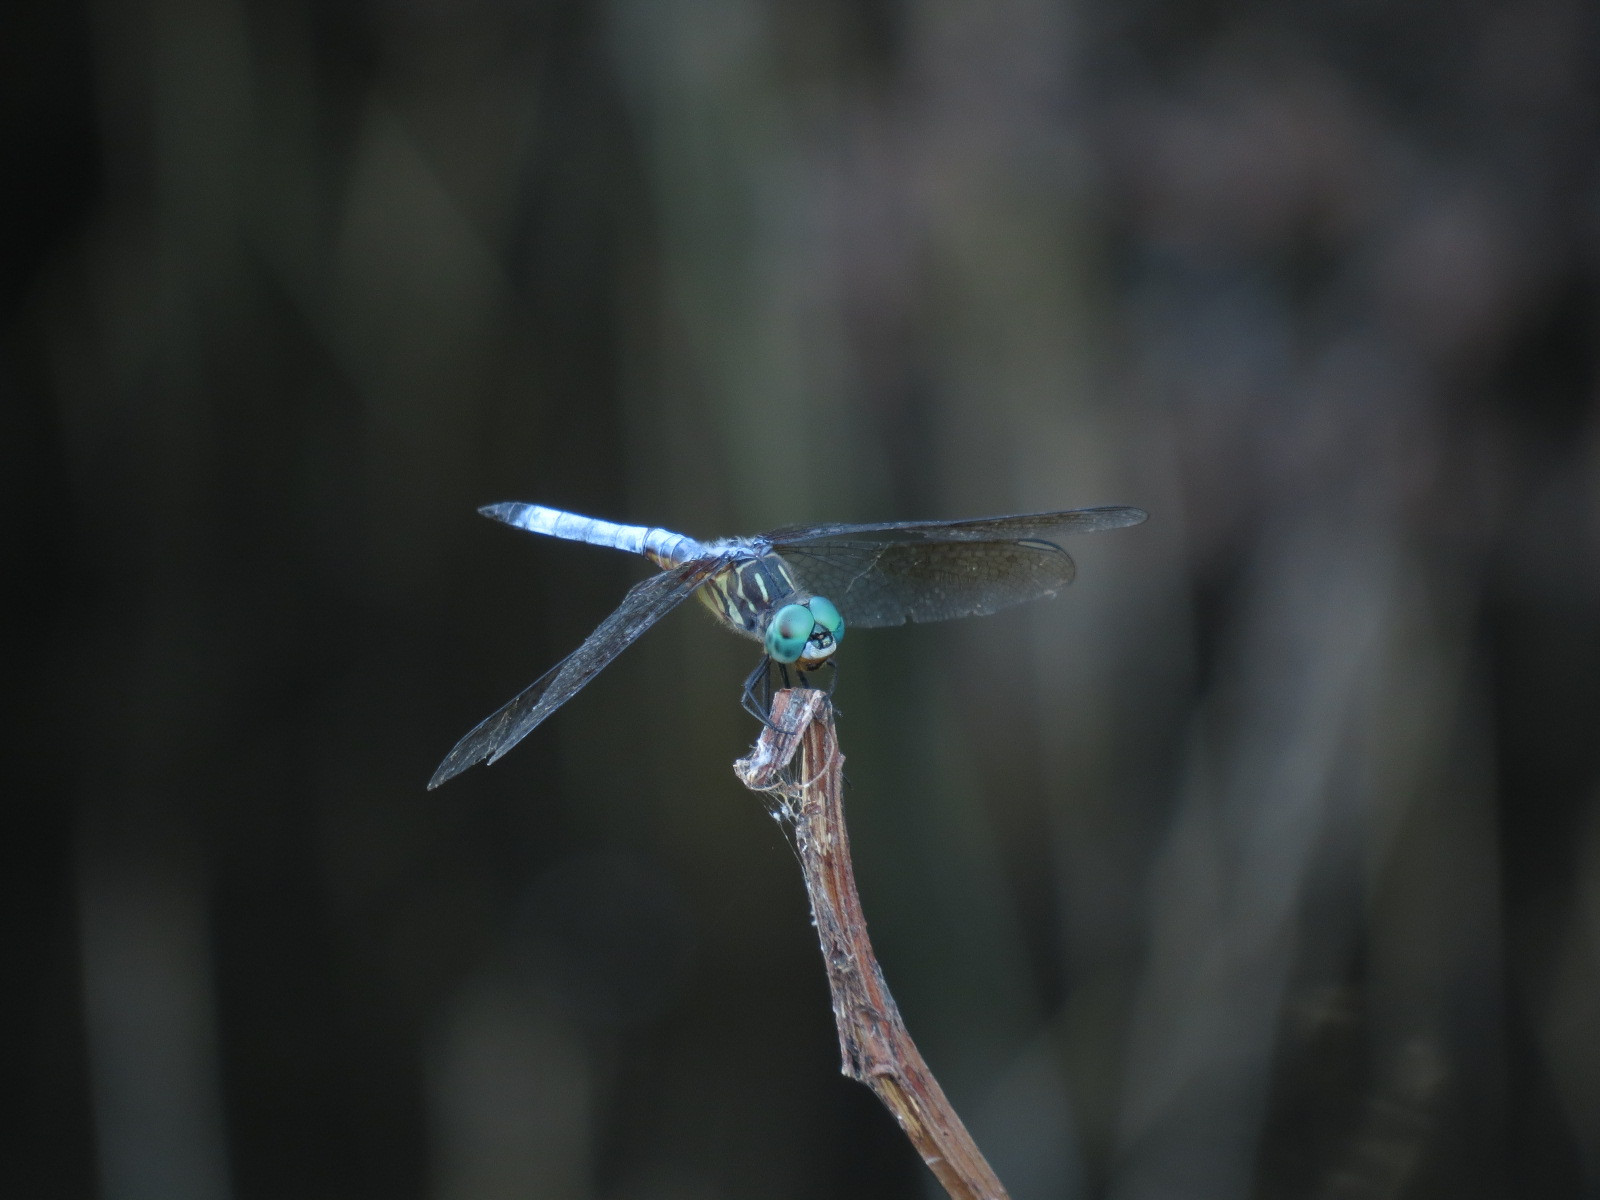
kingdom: Animalia
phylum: Arthropoda
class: Insecta
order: Odonata
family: Libellulidae
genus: Pachydiplax
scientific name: Pachydiplax longipennis
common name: Blue dasher
